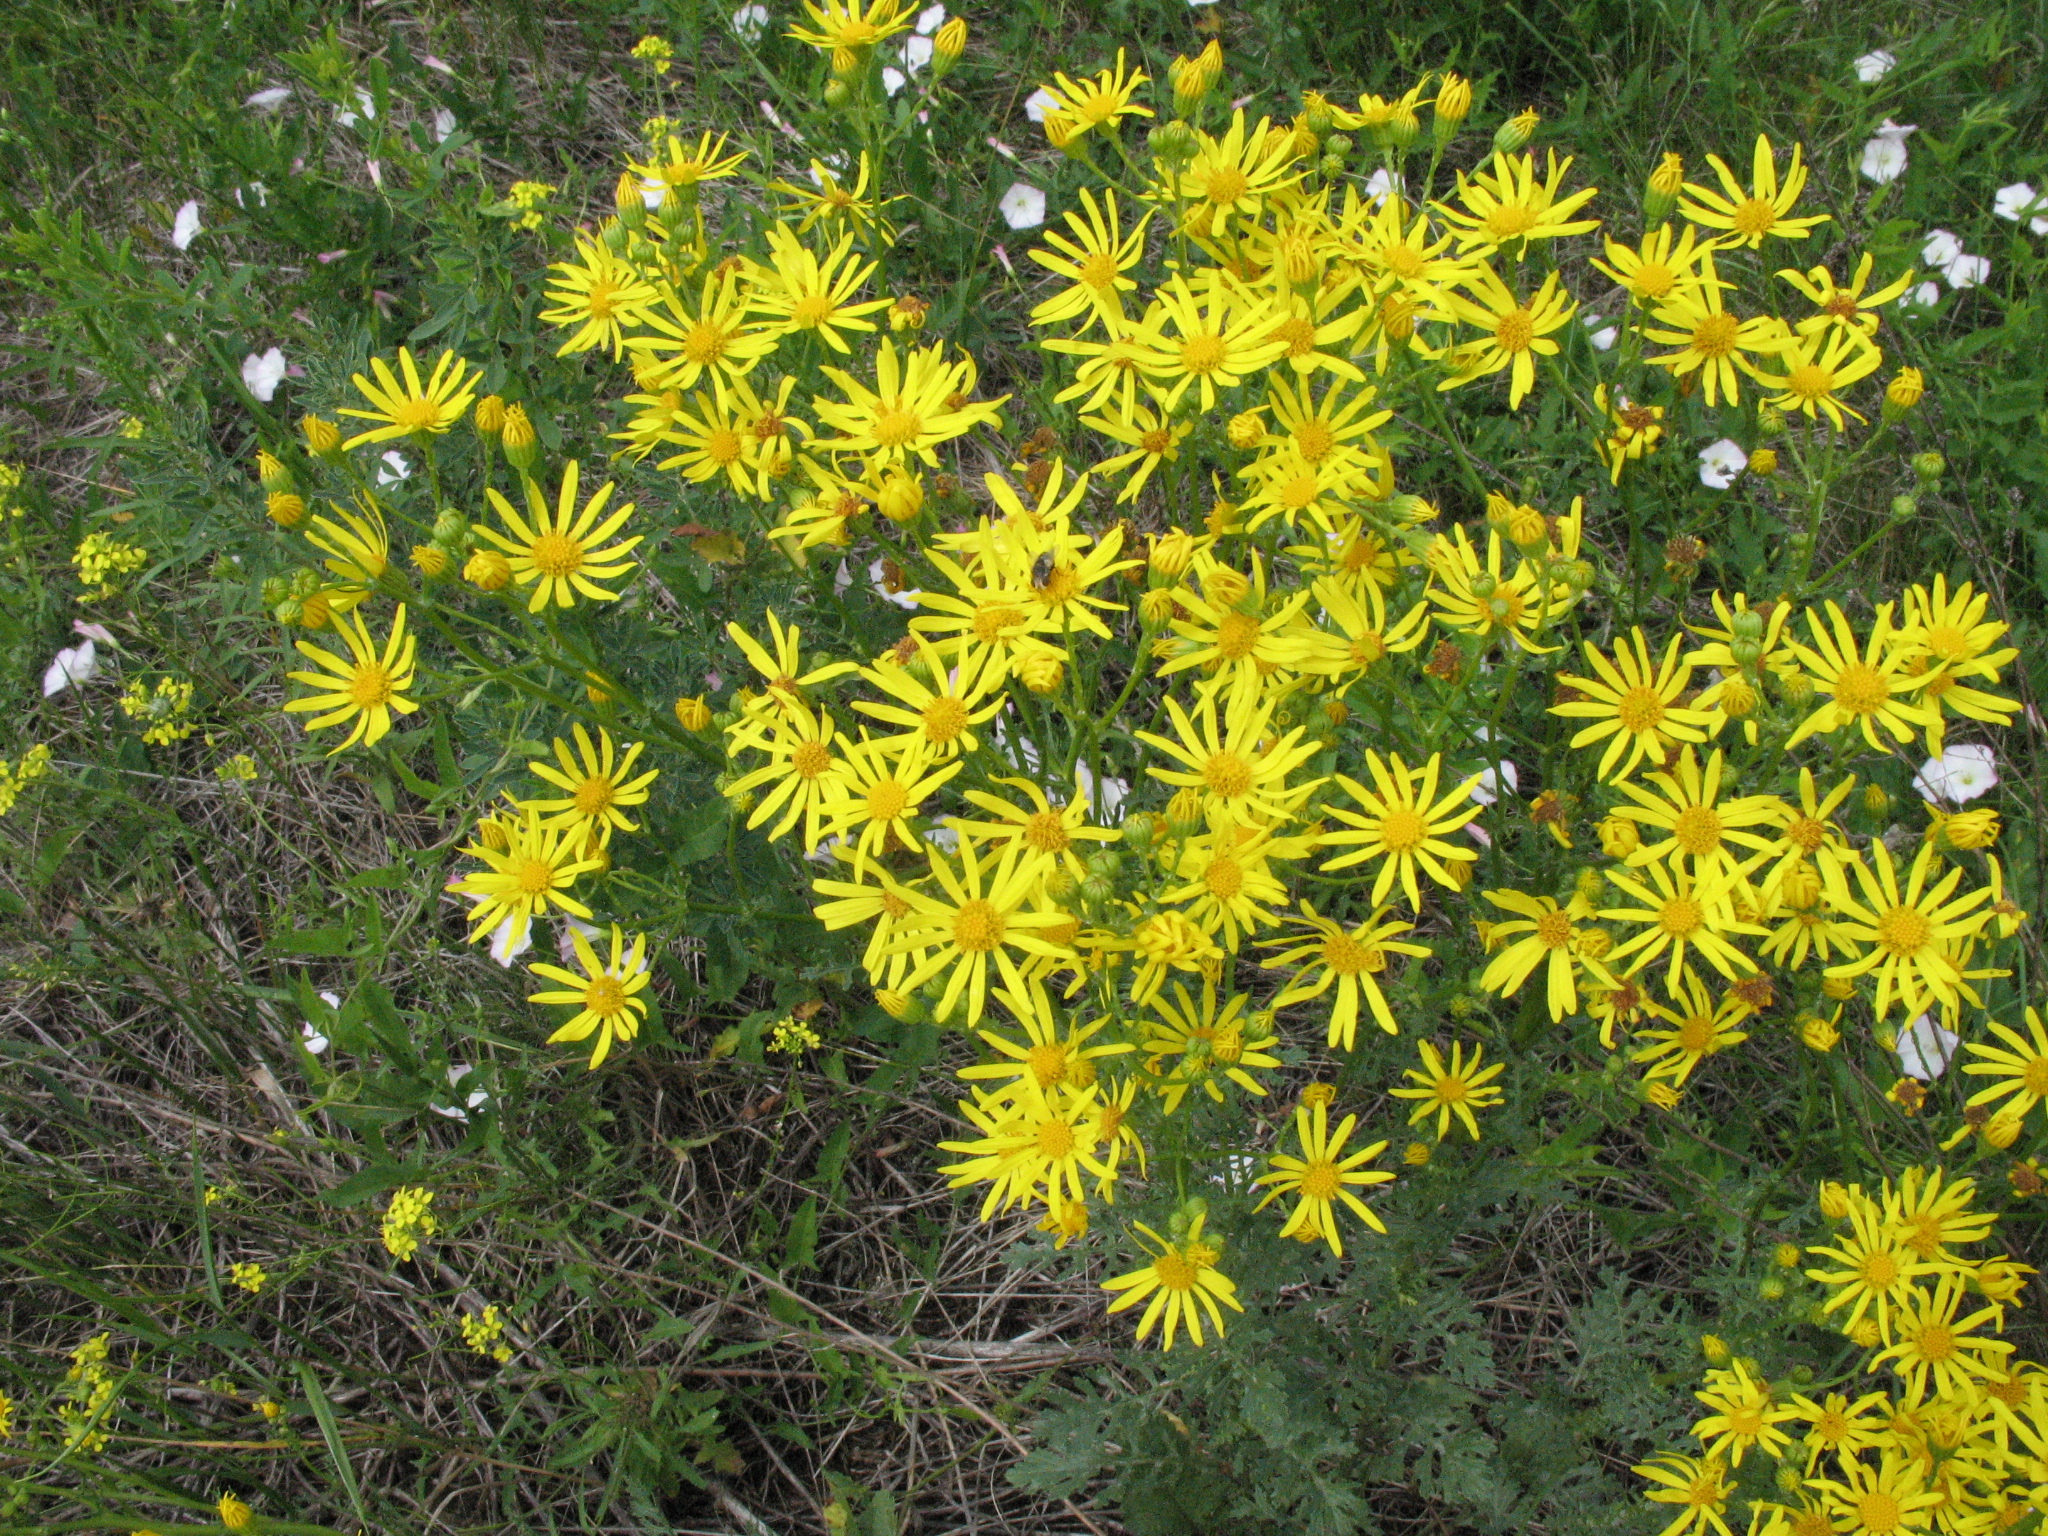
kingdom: Plantae
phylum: Tracheophyta
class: Magnoliopsida
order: Asterales
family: Asteraceae
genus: Jacobaea
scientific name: Jacobaea vulgaris
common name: Stinking willie
